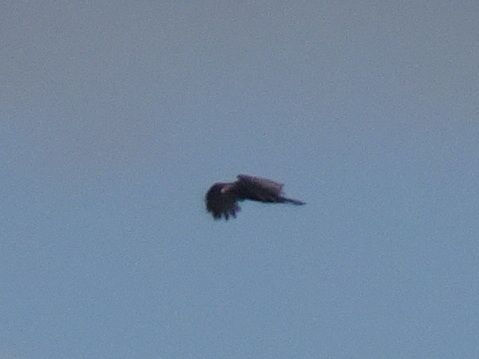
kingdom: Animalia
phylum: Chordata
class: Aves
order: Accipitriformes
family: Cathartidae
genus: Cathartes
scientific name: Cathartes aura
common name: Turkey vulture
